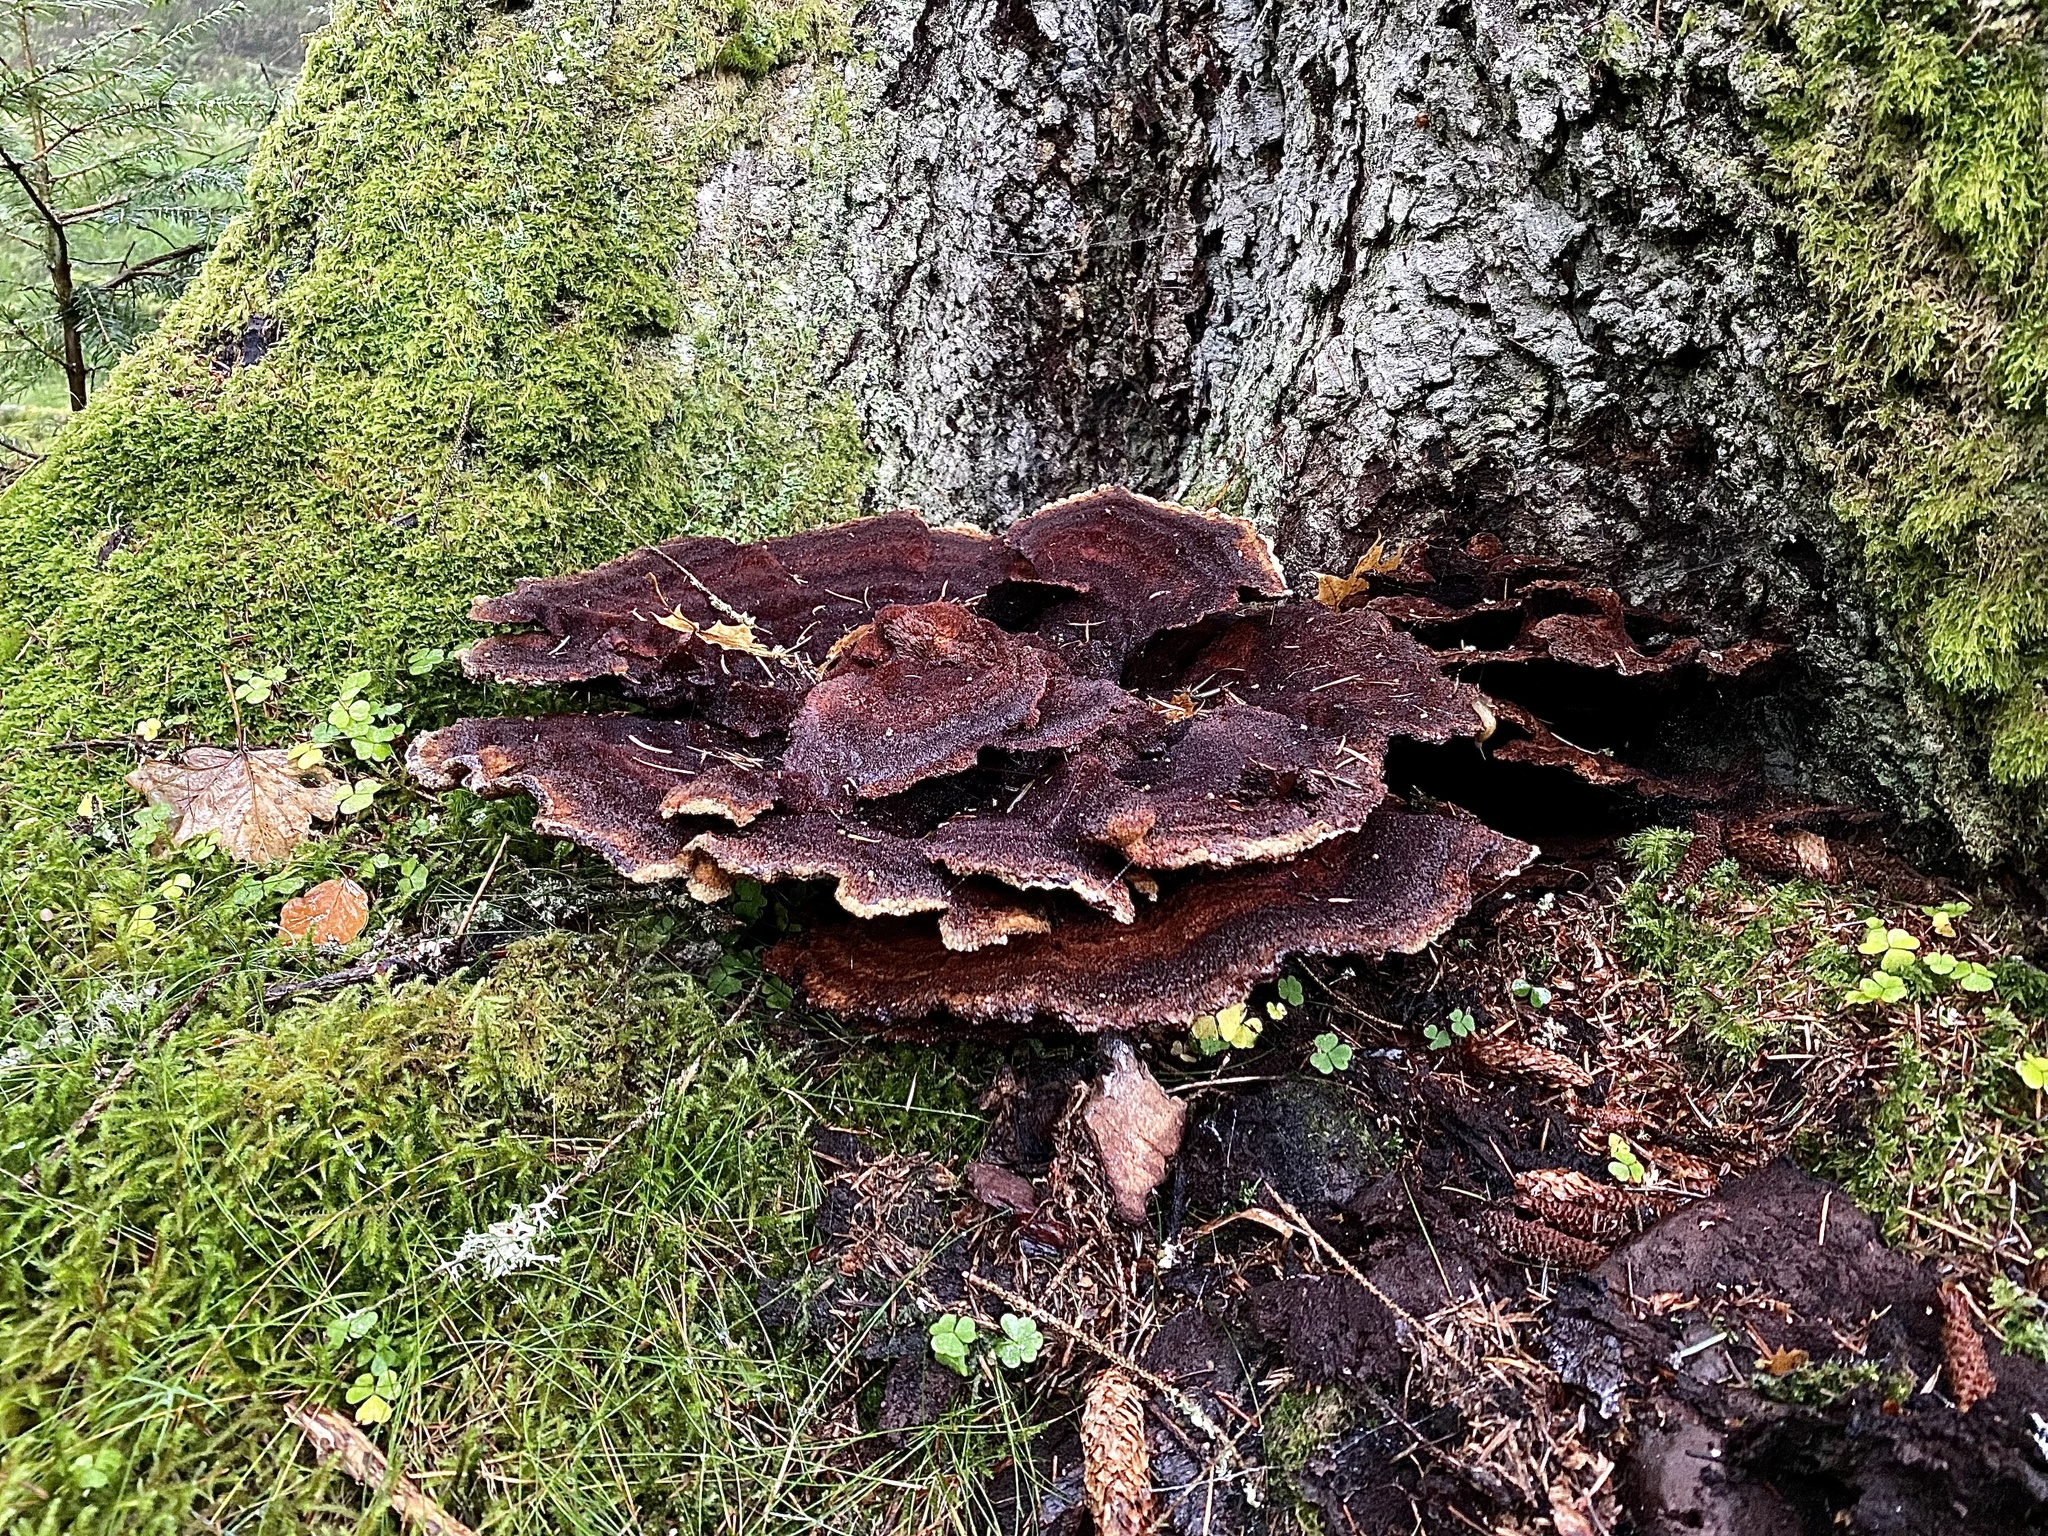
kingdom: Fungi
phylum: Basidiomycota
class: Agaricomycetes
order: Polyporales
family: Laetiporaceae
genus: Phaeolus
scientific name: Phaeolus schweinitzii
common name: Dyer's mazegill
